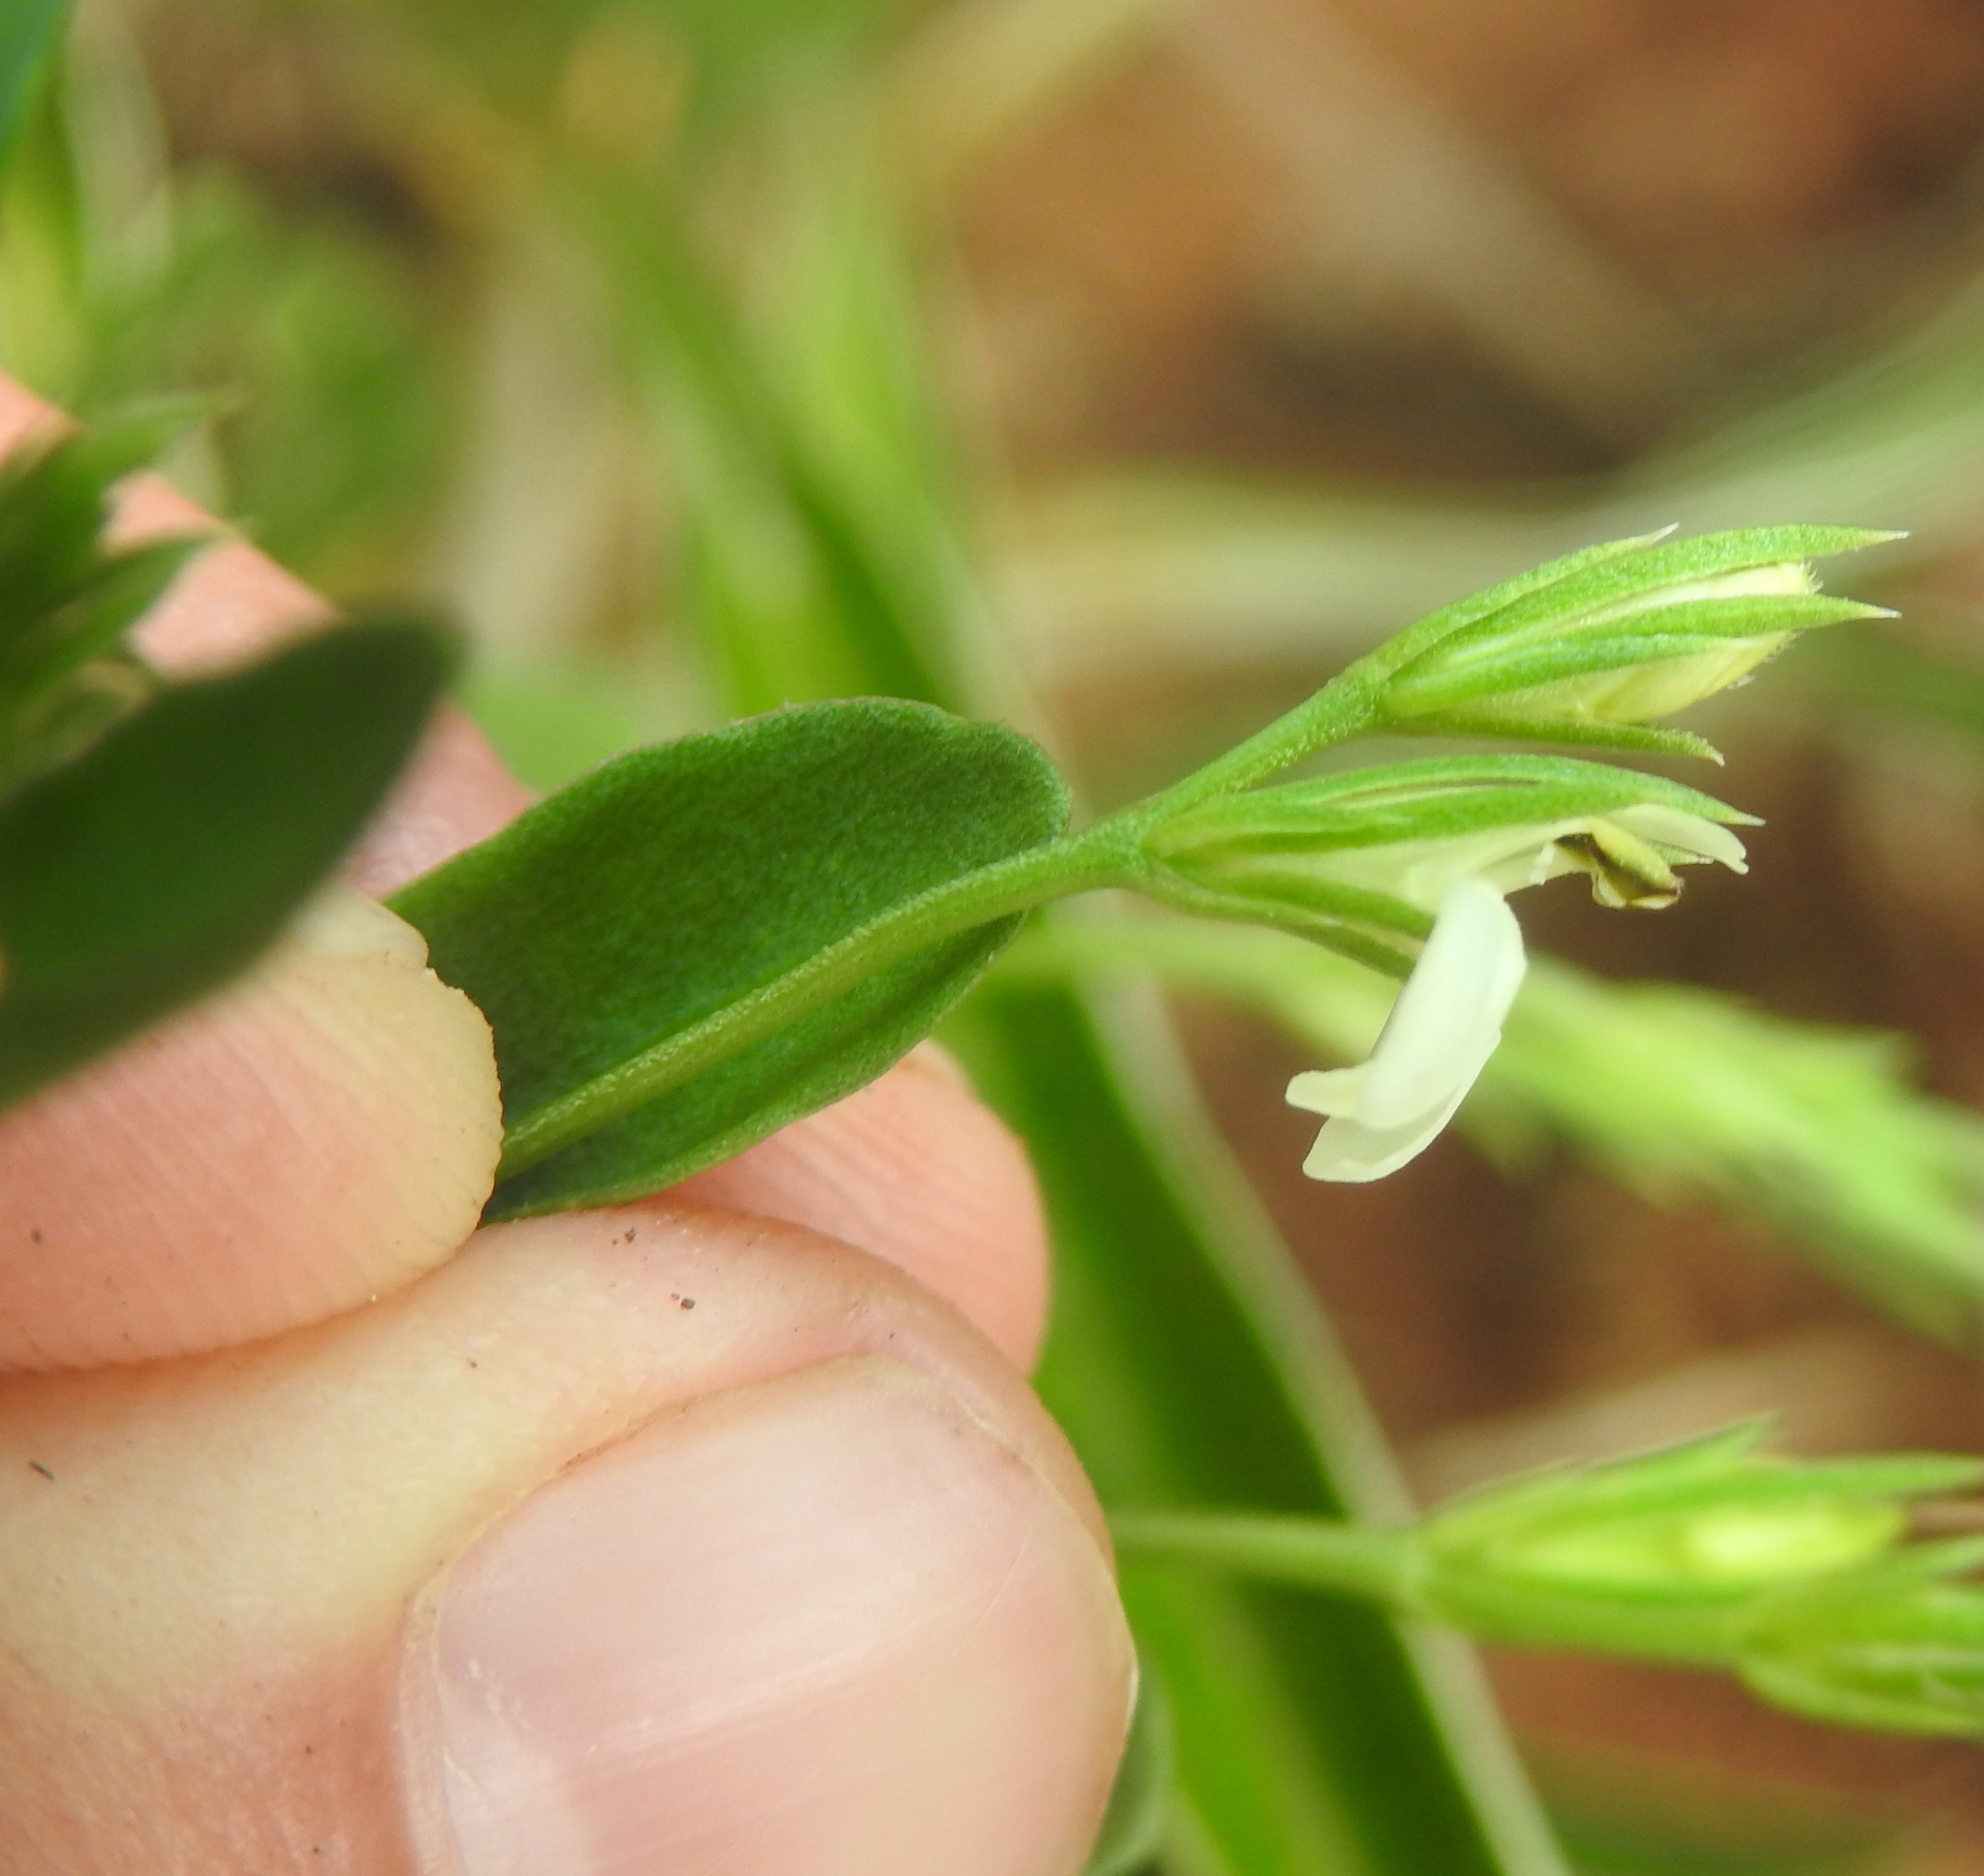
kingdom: Plantae
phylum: Tracheophyta
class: Magnoliopsida
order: Lamiales
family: Acanthaceae
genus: Justicia
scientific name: Justicia anagalloides
